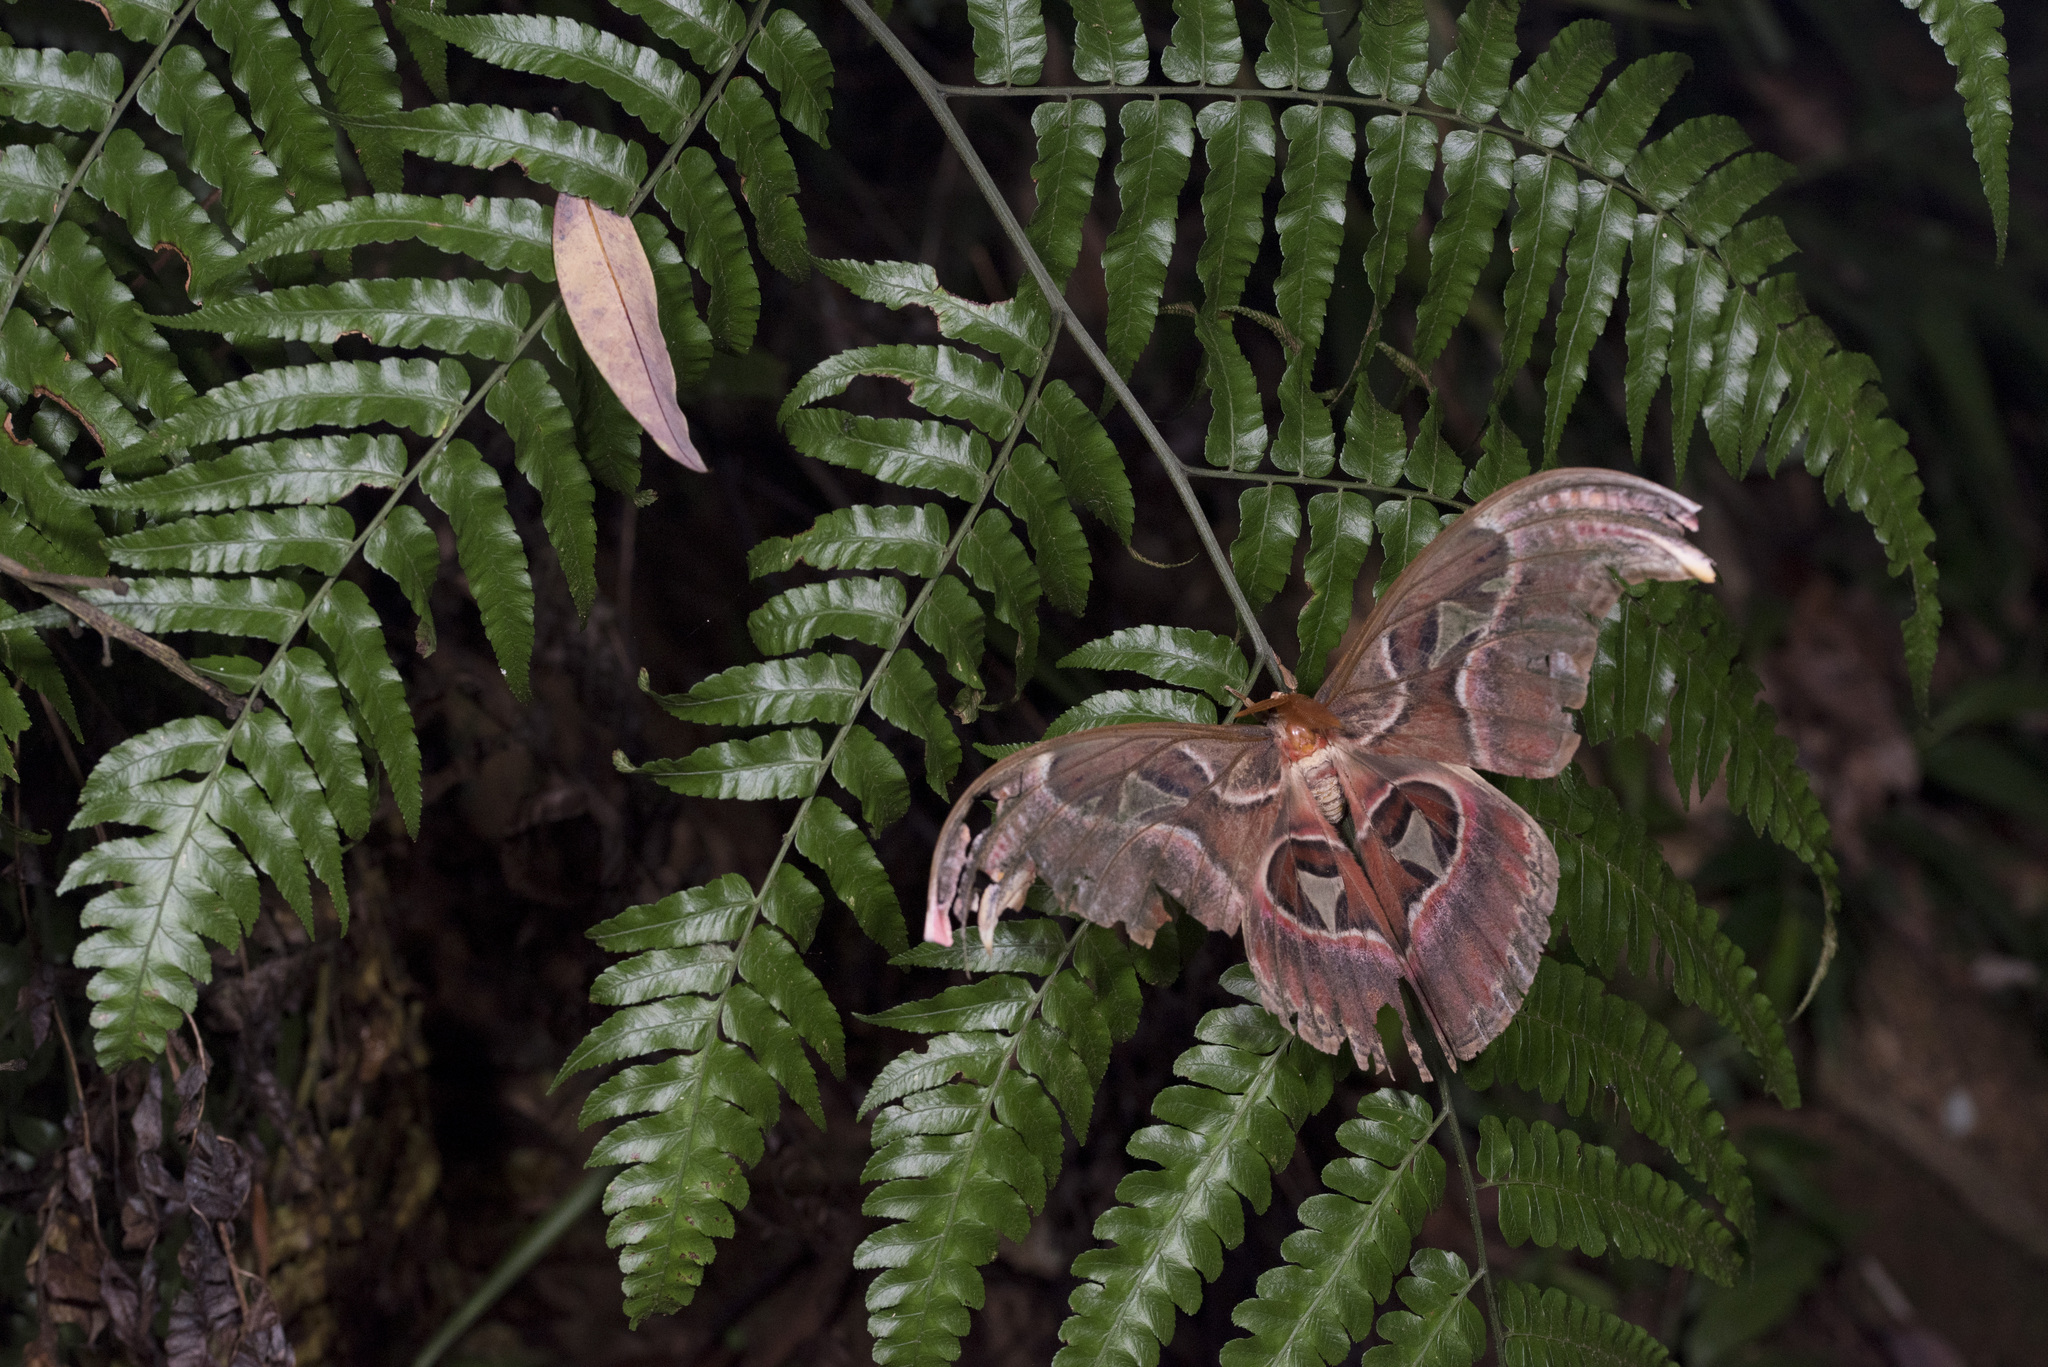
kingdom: Animalia
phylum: Arthropoda
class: Insecta
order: Lepidoptera
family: Saturniidae
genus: Attacus
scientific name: Attacus atlas
